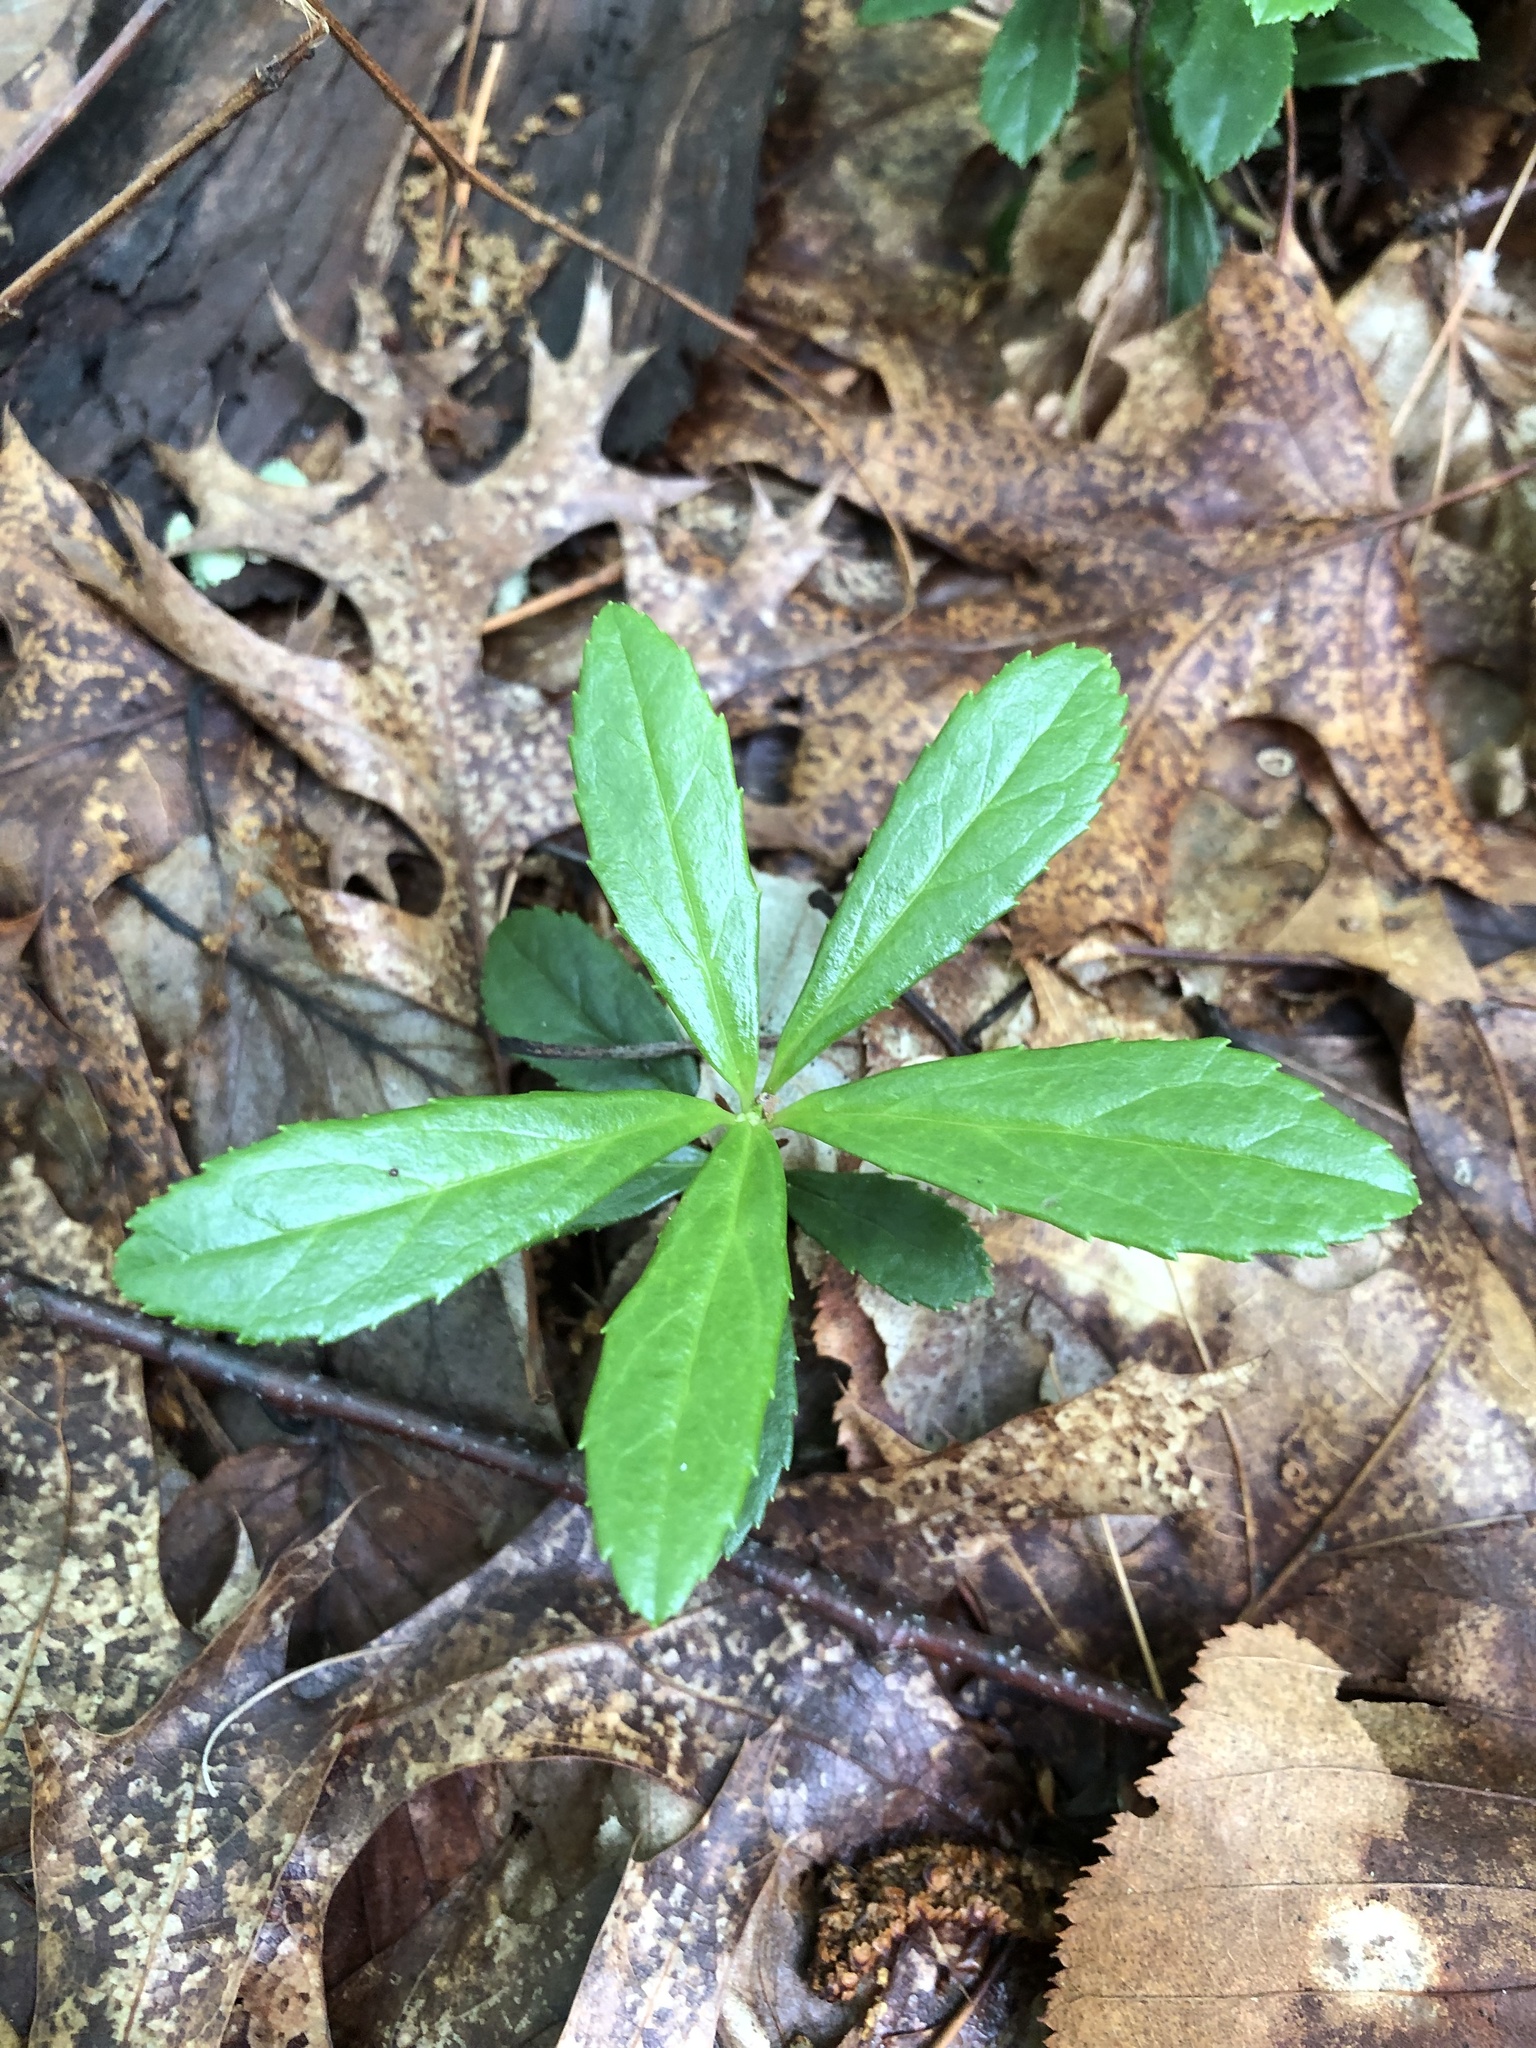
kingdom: Plantae
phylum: Tracheophyta
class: Magnoliopsida
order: Ericales
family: Ericaceae
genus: Chimaphila
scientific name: Chimaphila umbellata
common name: Pipsissewa
